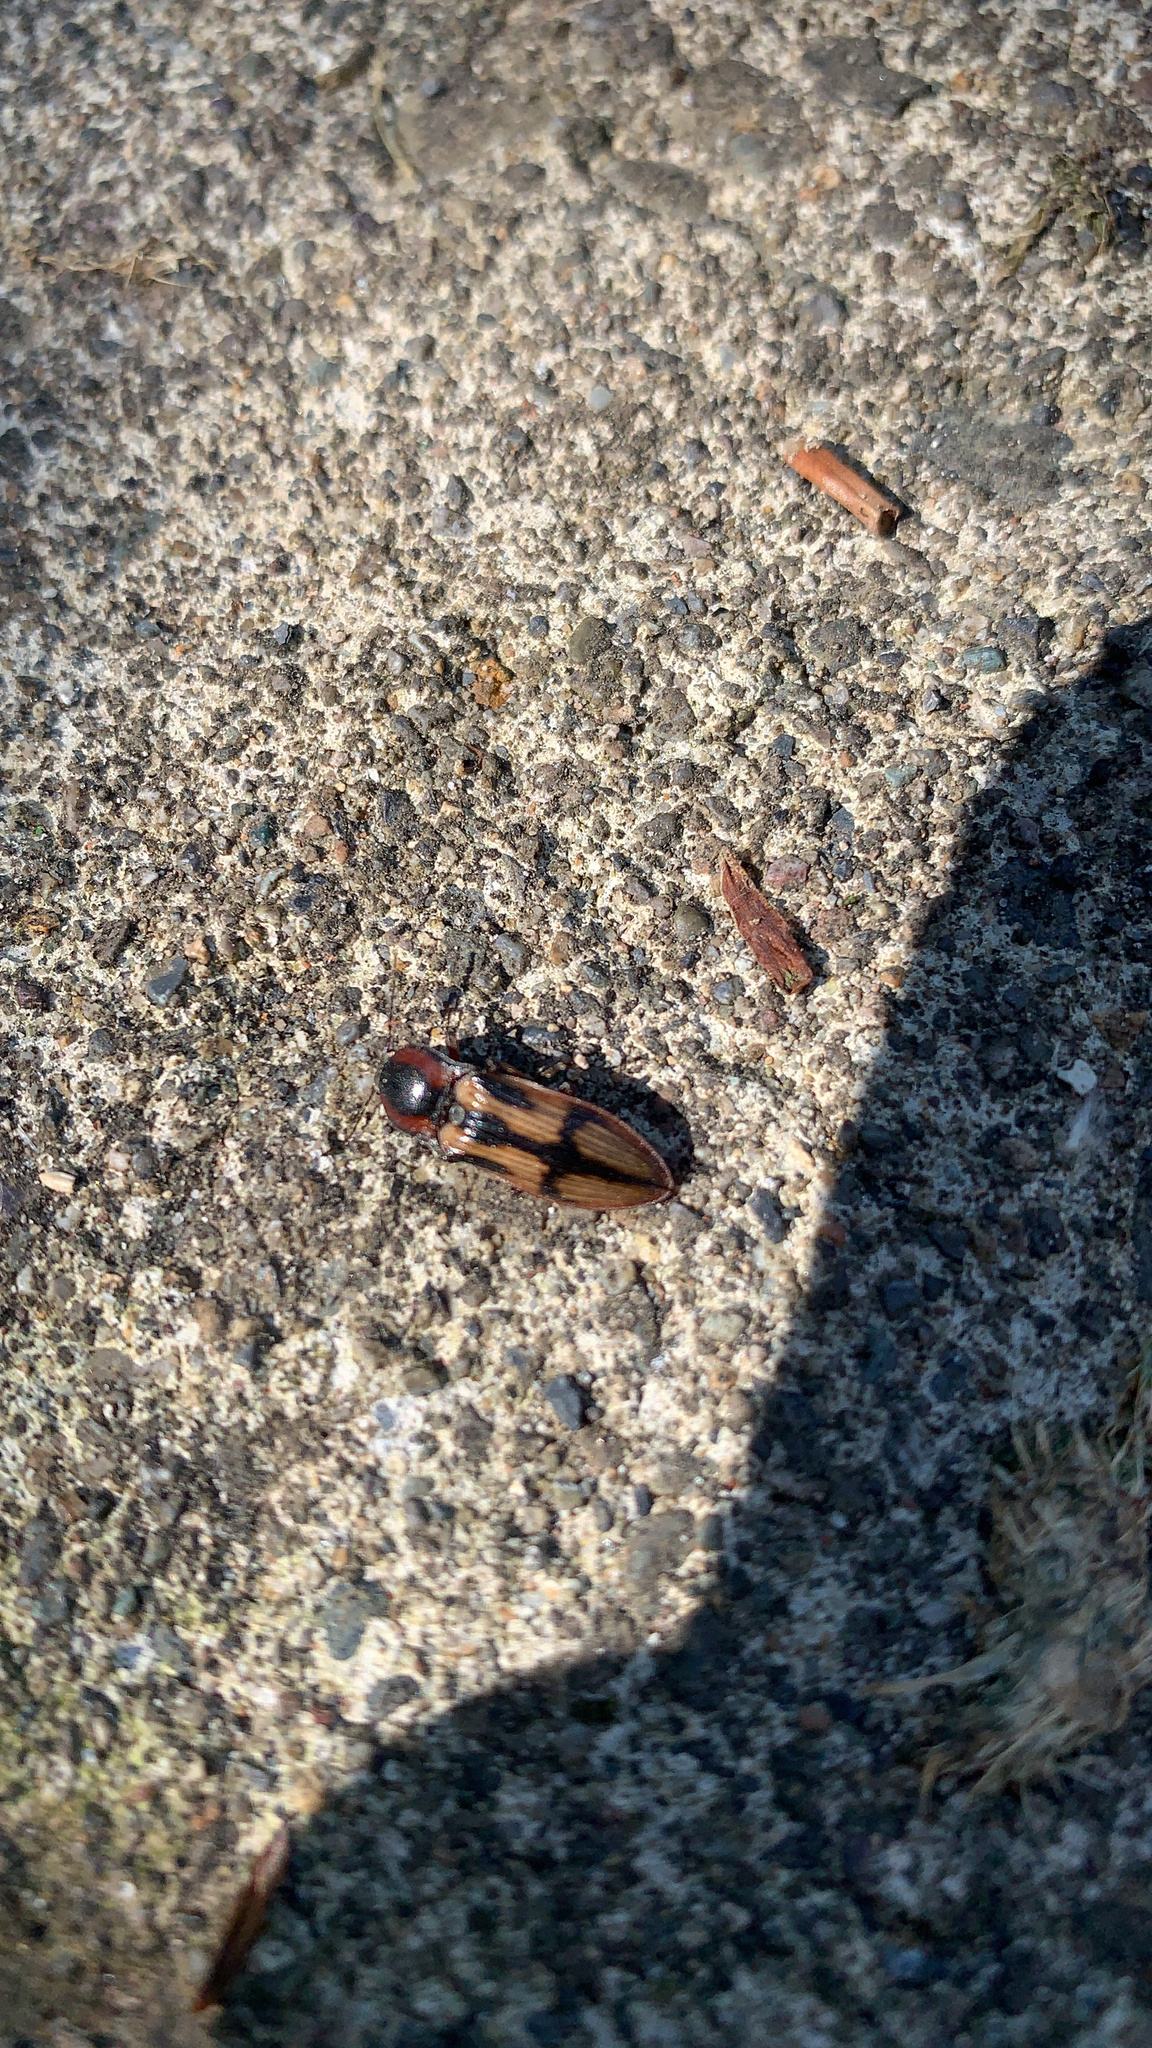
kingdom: Animalia
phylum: Arthropoda
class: Insecta
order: Coleoptera
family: Elateridae
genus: Selatosomus
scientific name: Selatosomus festivus
